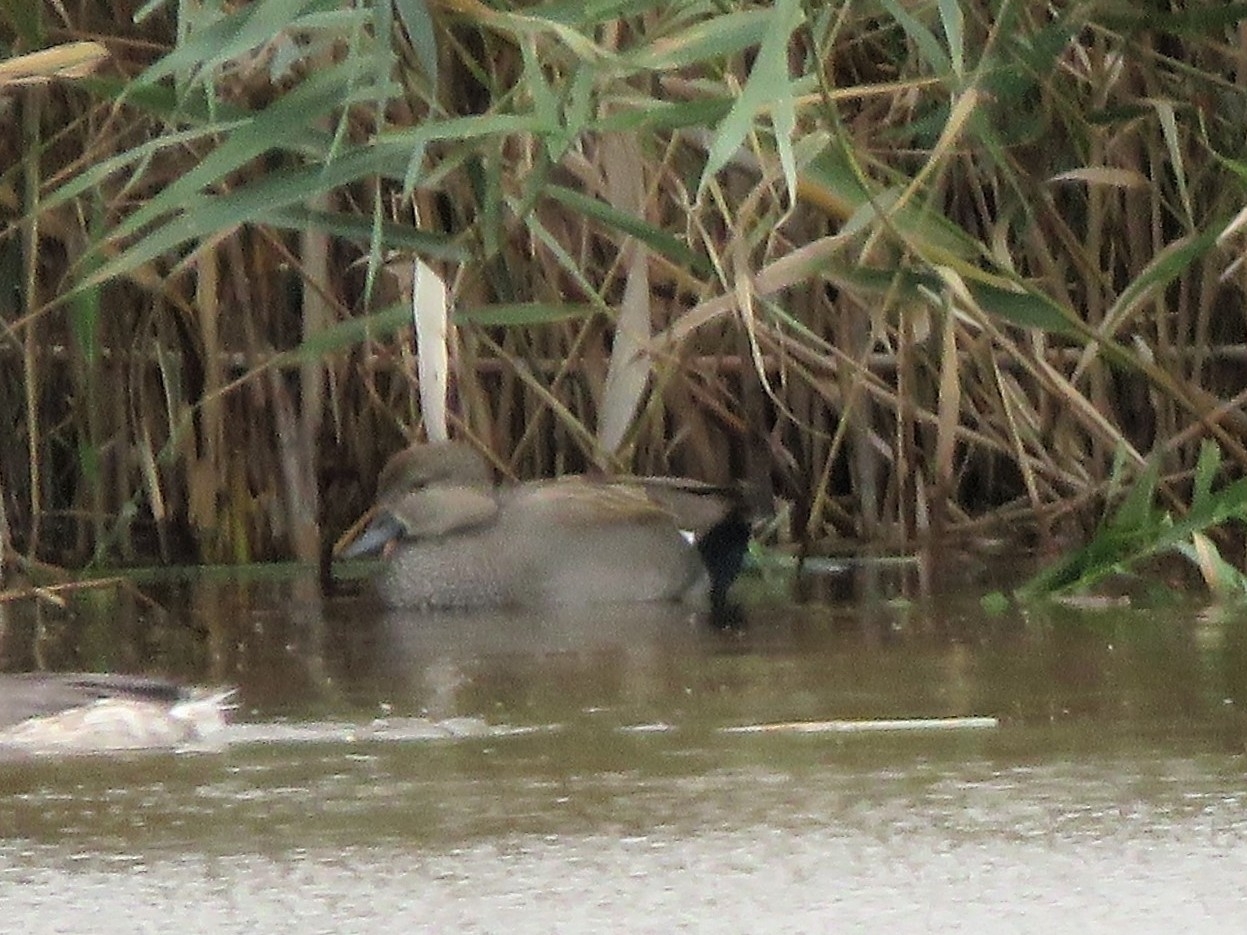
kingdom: Animalia
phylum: Chordata
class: Aves
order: Anseriformes
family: Anatidae
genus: Mareca
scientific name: Mareca strepera
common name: Gadwall
